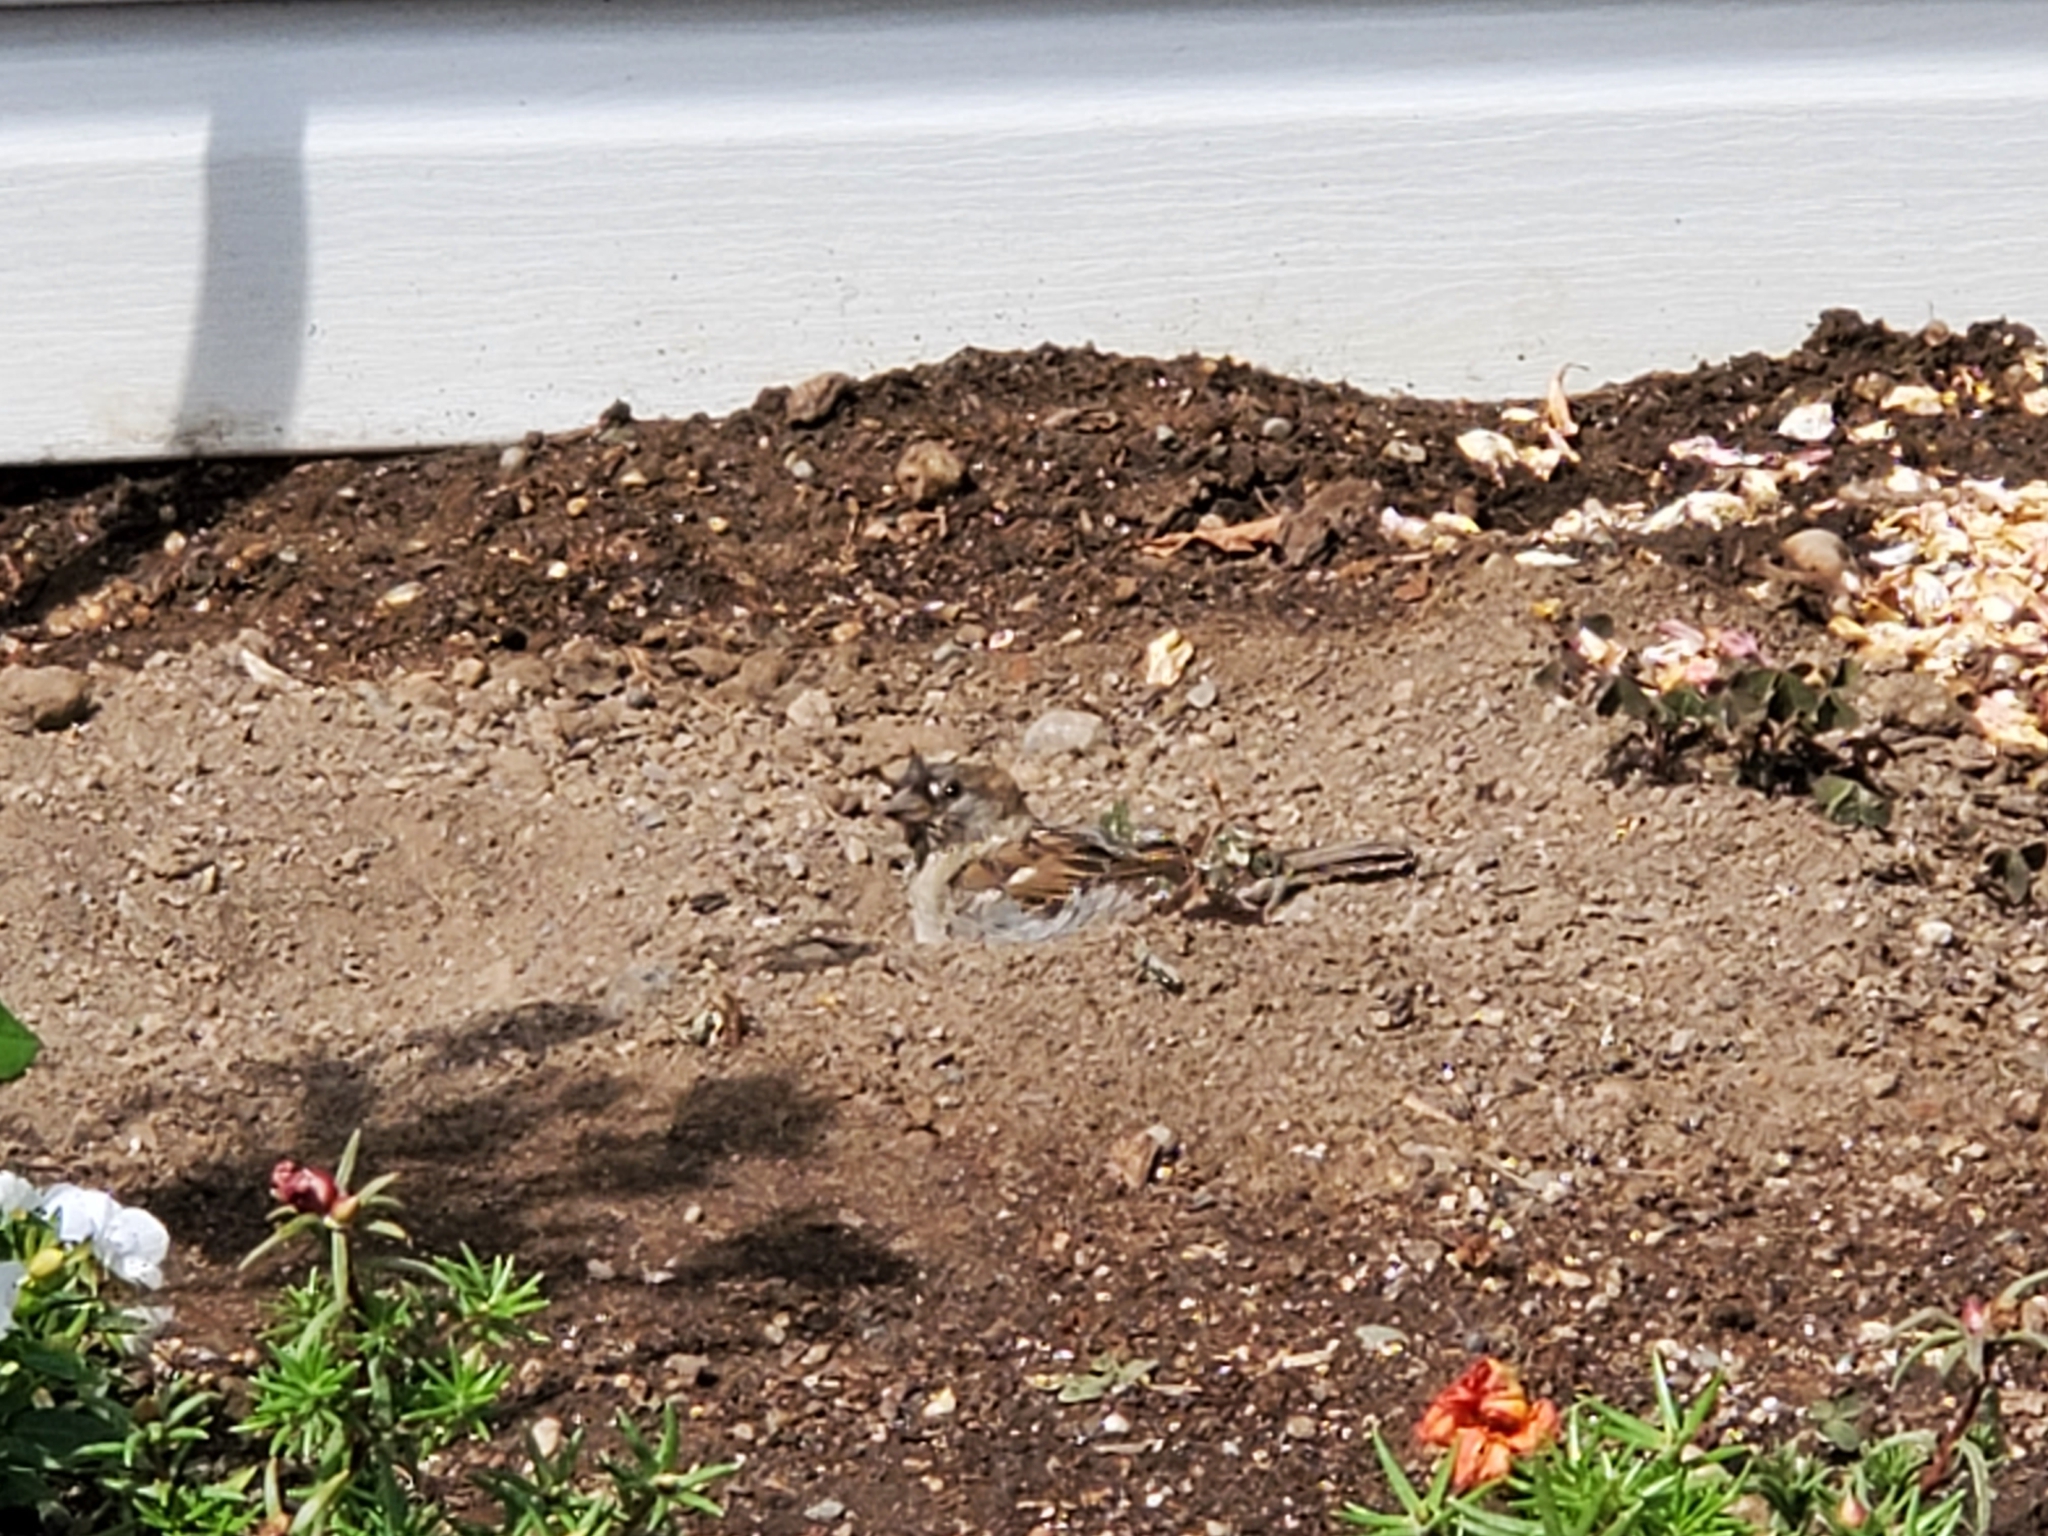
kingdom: Animalia
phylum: Chordata
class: Aves
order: Passeriformes
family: Passeridae
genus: Passer
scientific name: Passer domesticus
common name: House sparrow
